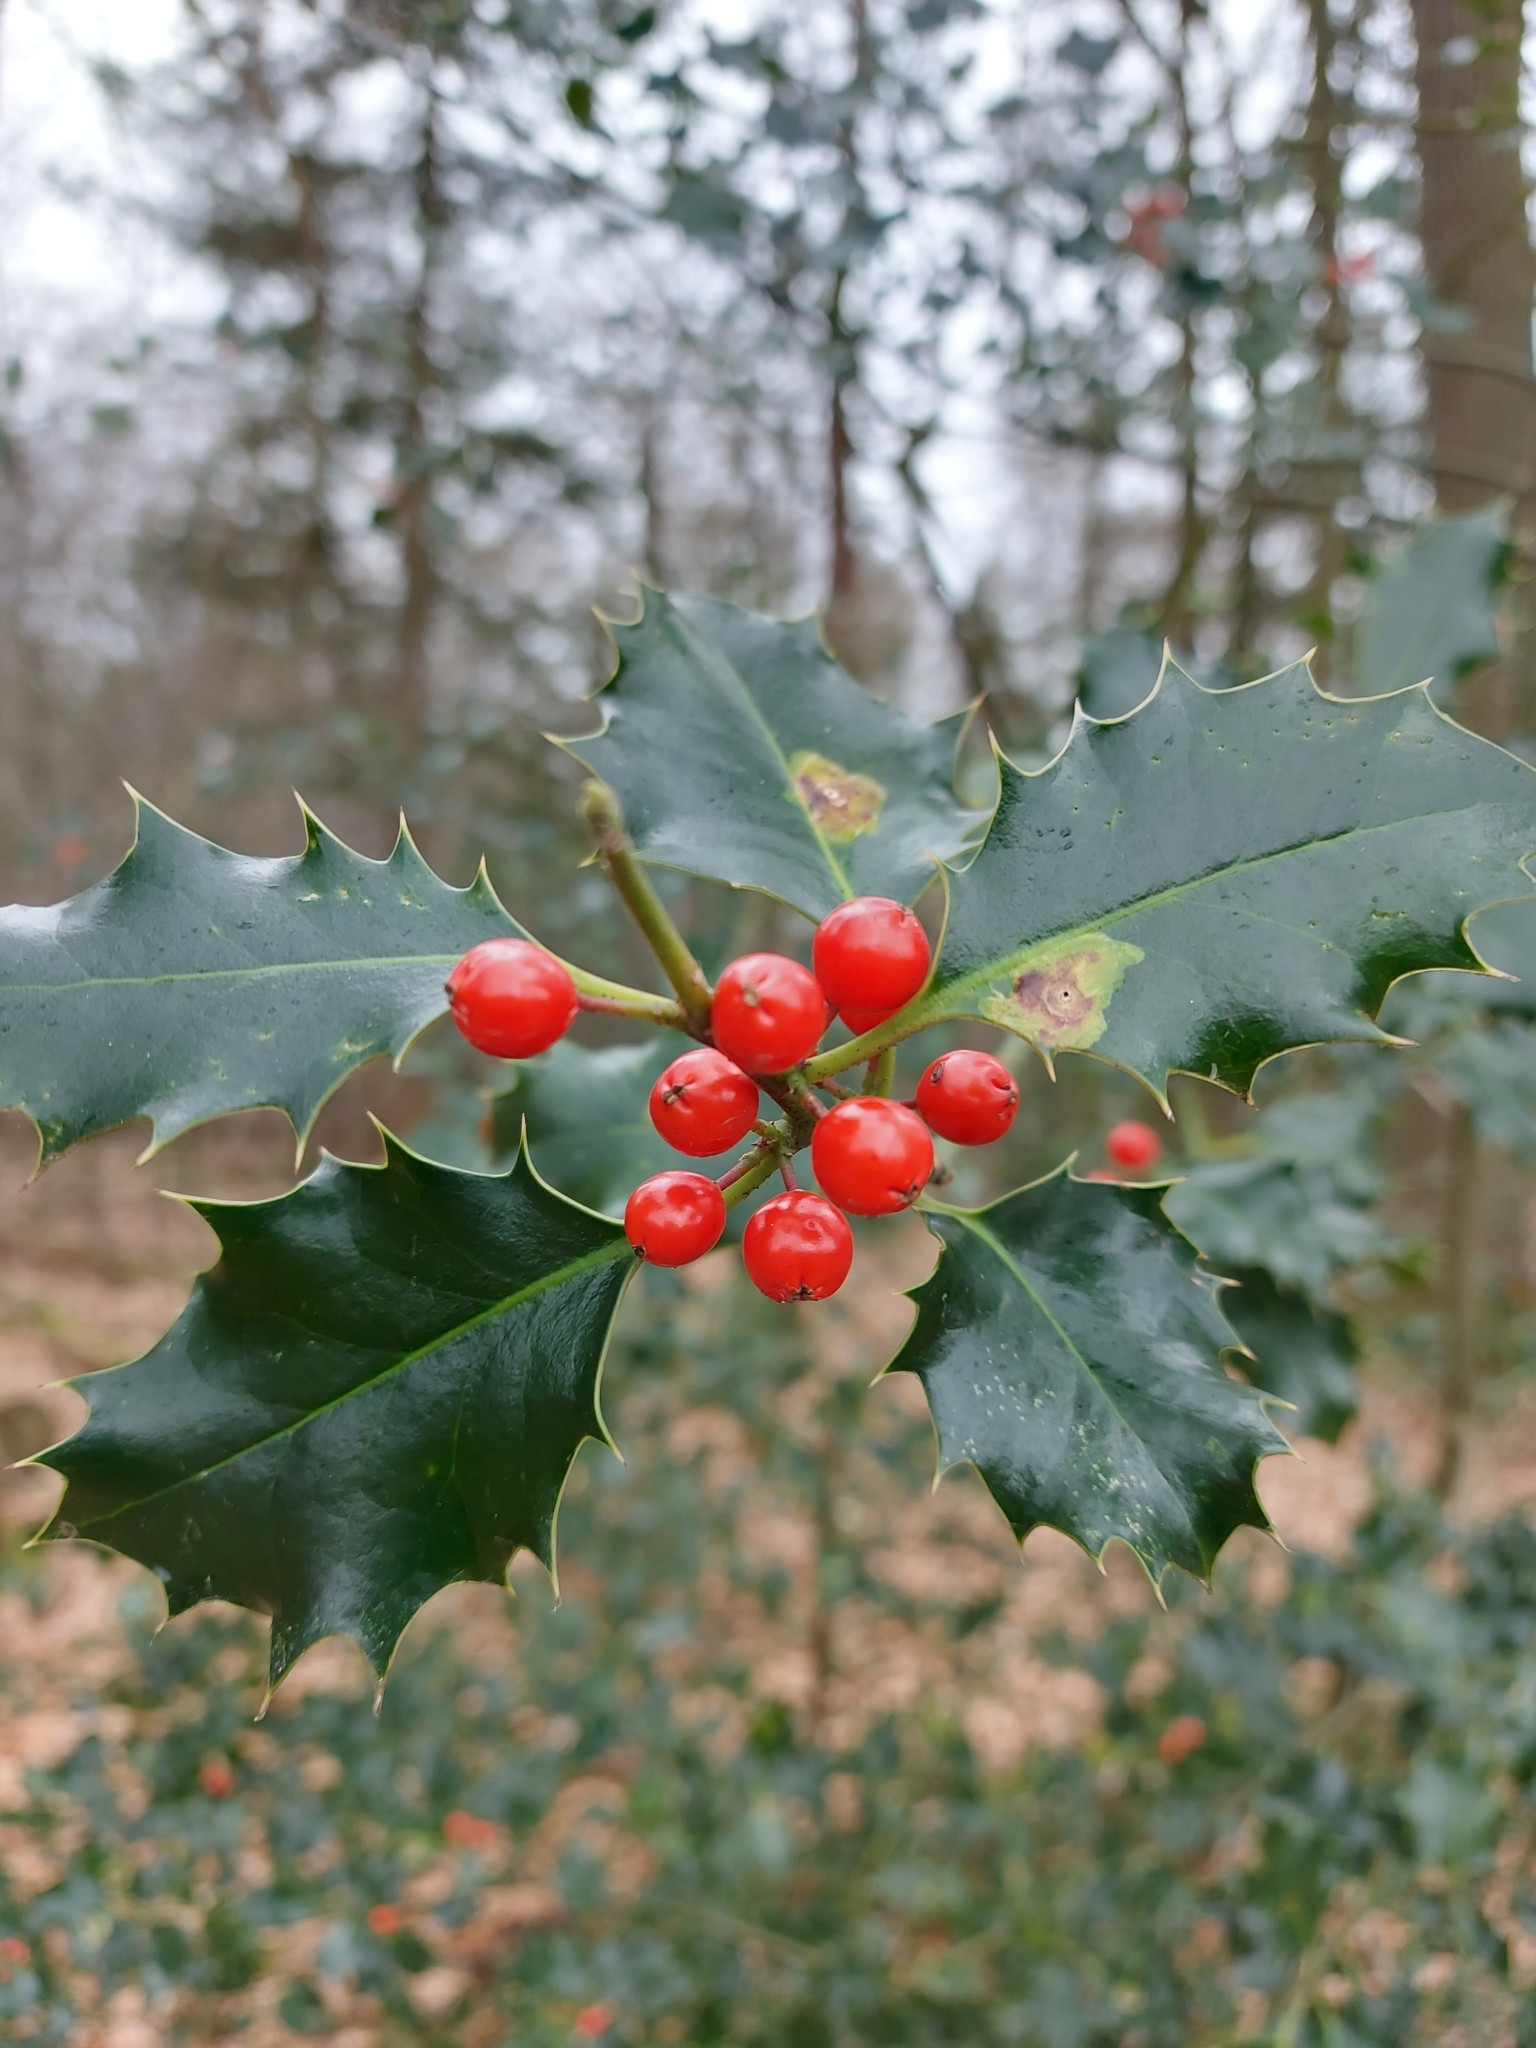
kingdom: Plantae
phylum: Tracheophyta
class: Magnoliopsida
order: Aquifoliales
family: Aquifoliaceae
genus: Ilex
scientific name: Ilex aquifolium
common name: English holly
